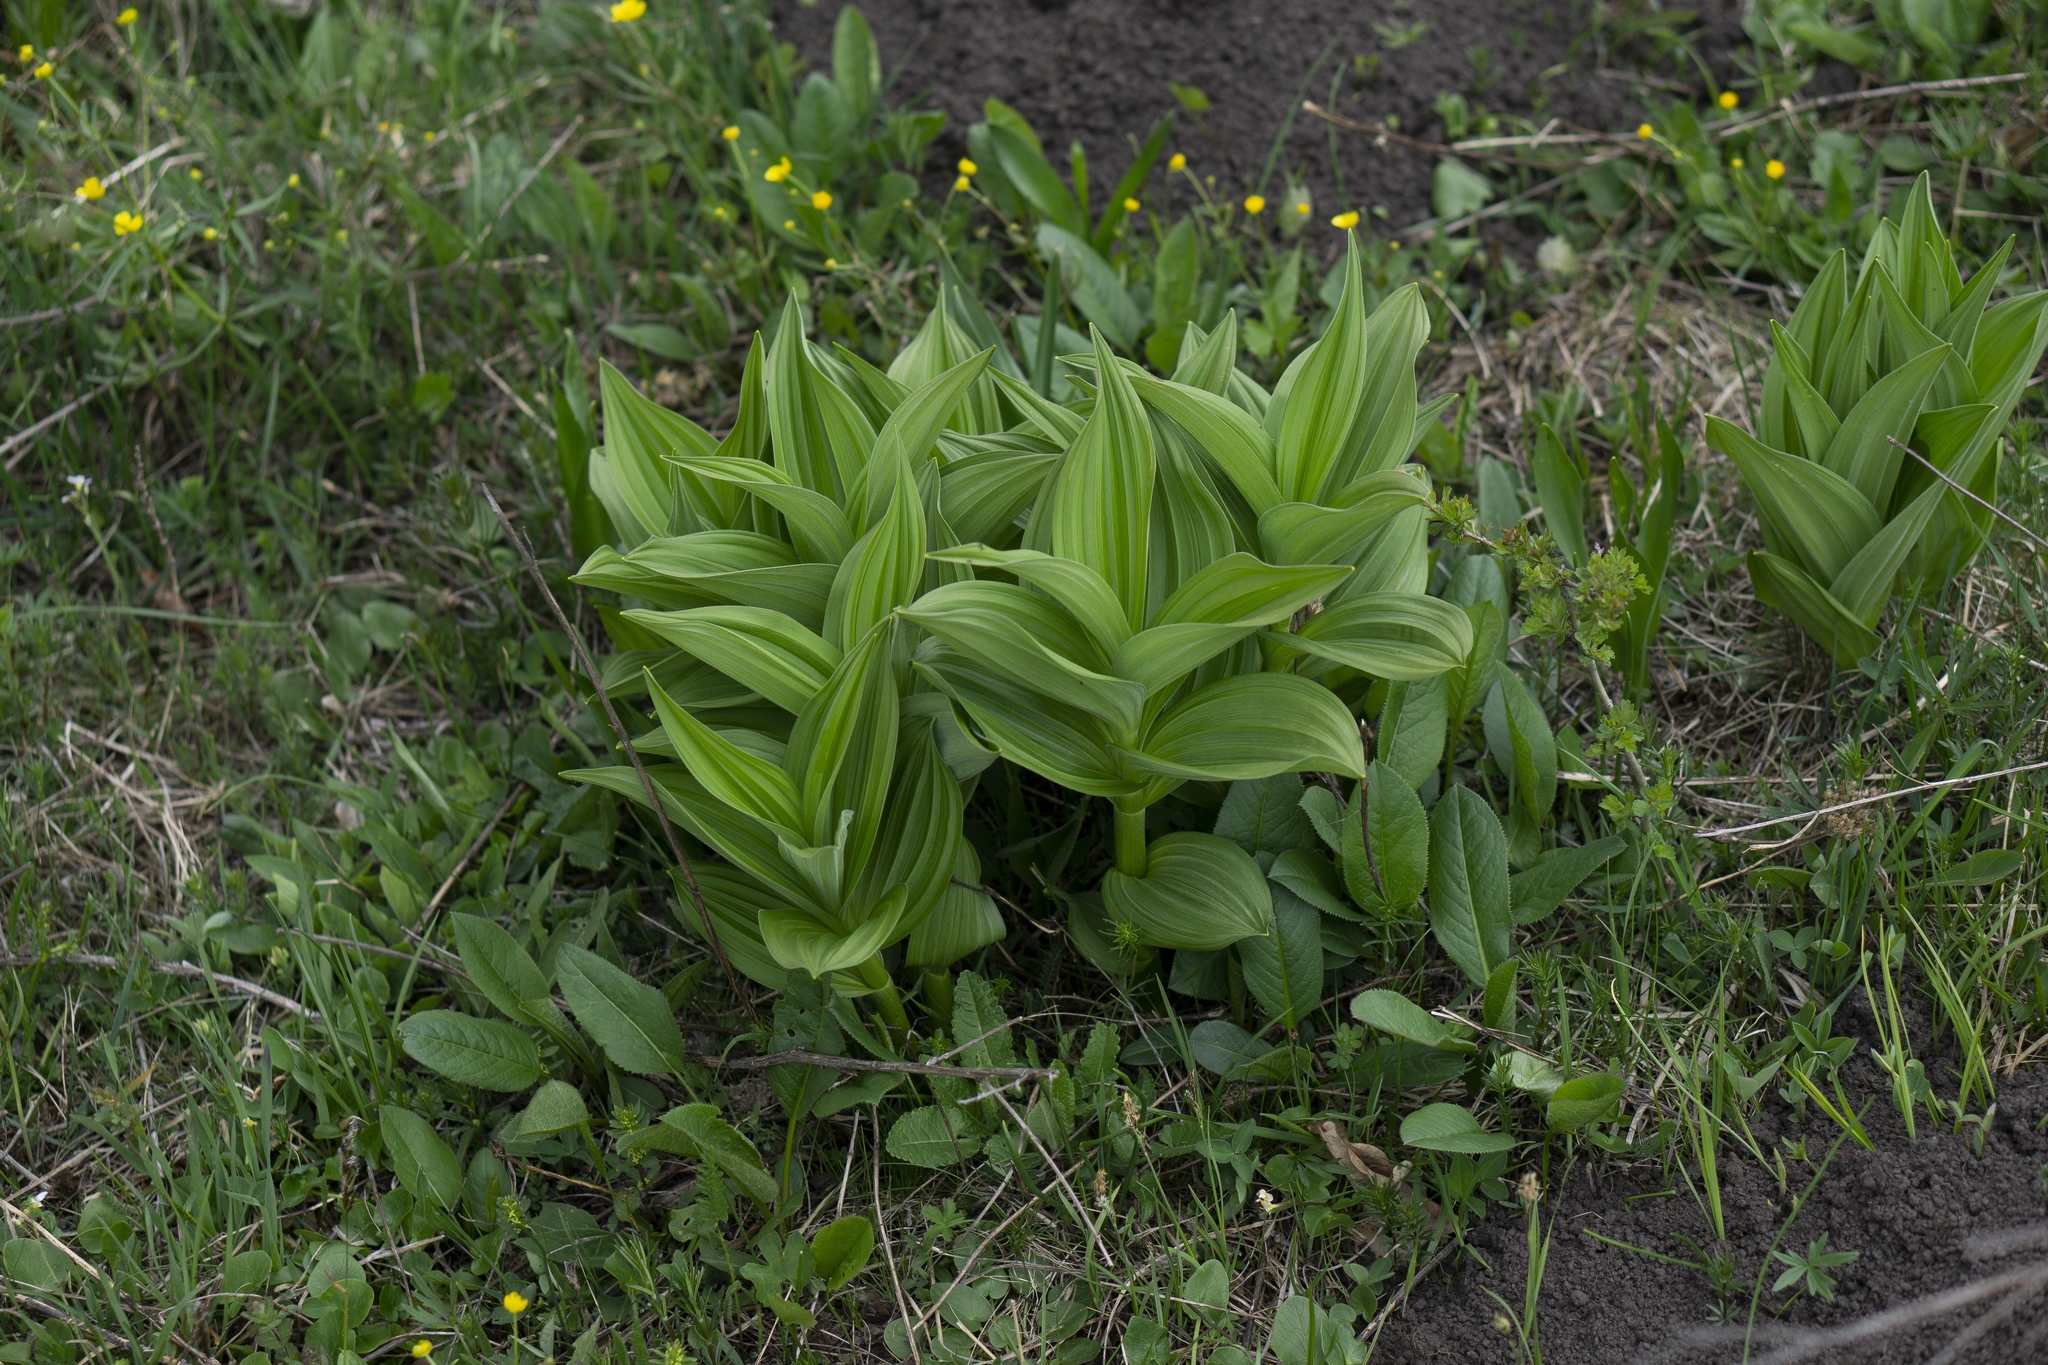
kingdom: Plantae
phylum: Tracheophyta
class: Liliopsida
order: Liliales
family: Melanthiaceae
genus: Veratrum
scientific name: Veratrum album
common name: White veratrum
